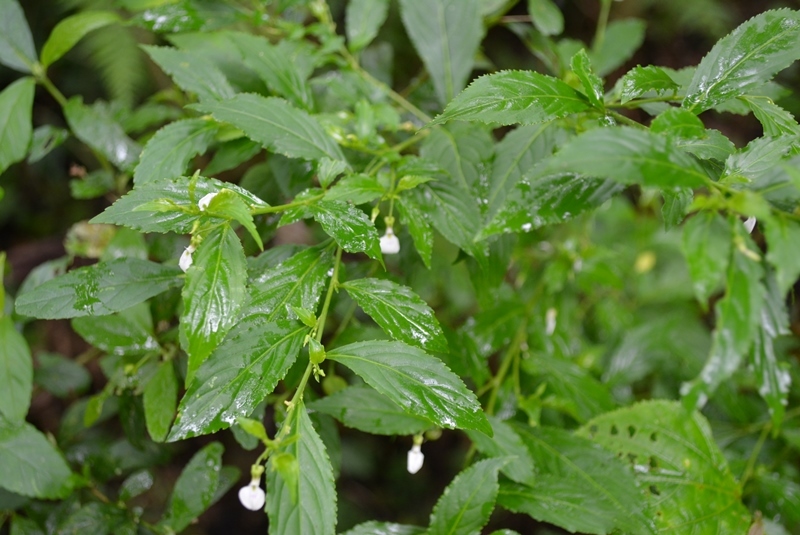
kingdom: Plantae
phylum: Tracheophyta
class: Magnoliopsida
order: Malpighiales
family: Violaceae
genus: Pombalia
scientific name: Pombalia sylvicola
